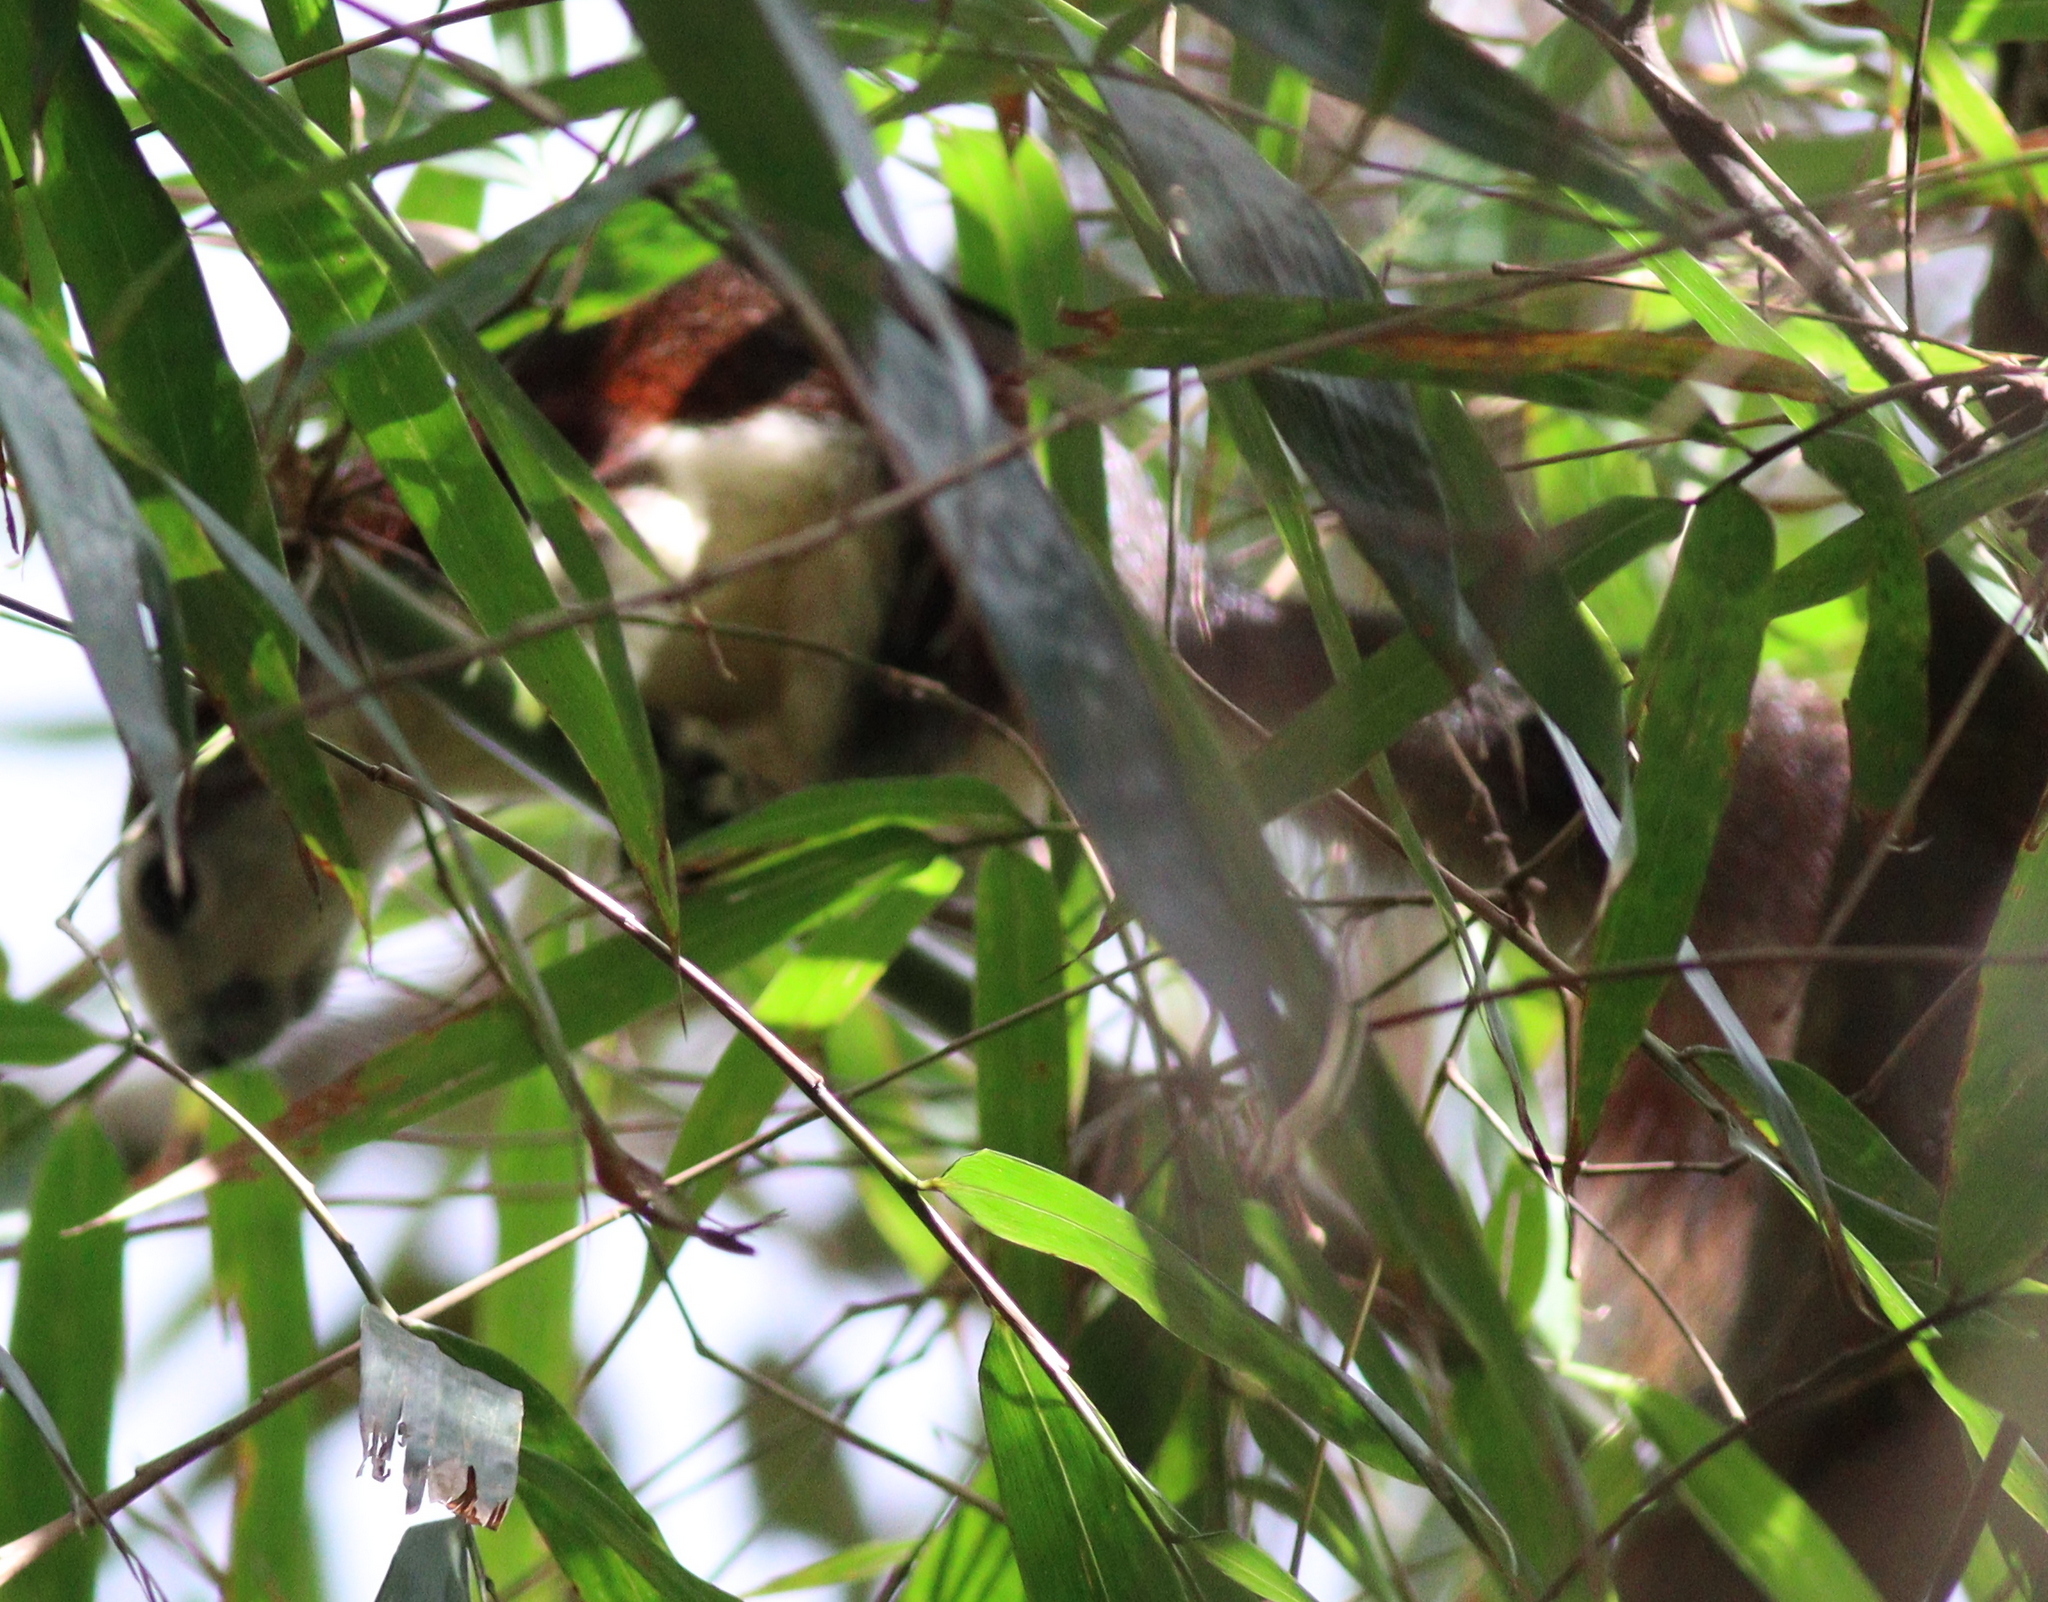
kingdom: Animalia
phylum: Chordata
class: Mammalia
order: Rodentia
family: Sciuridae
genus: Callosciurus
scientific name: Callosciurus finlaysonii
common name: Finlayson's squirrel
